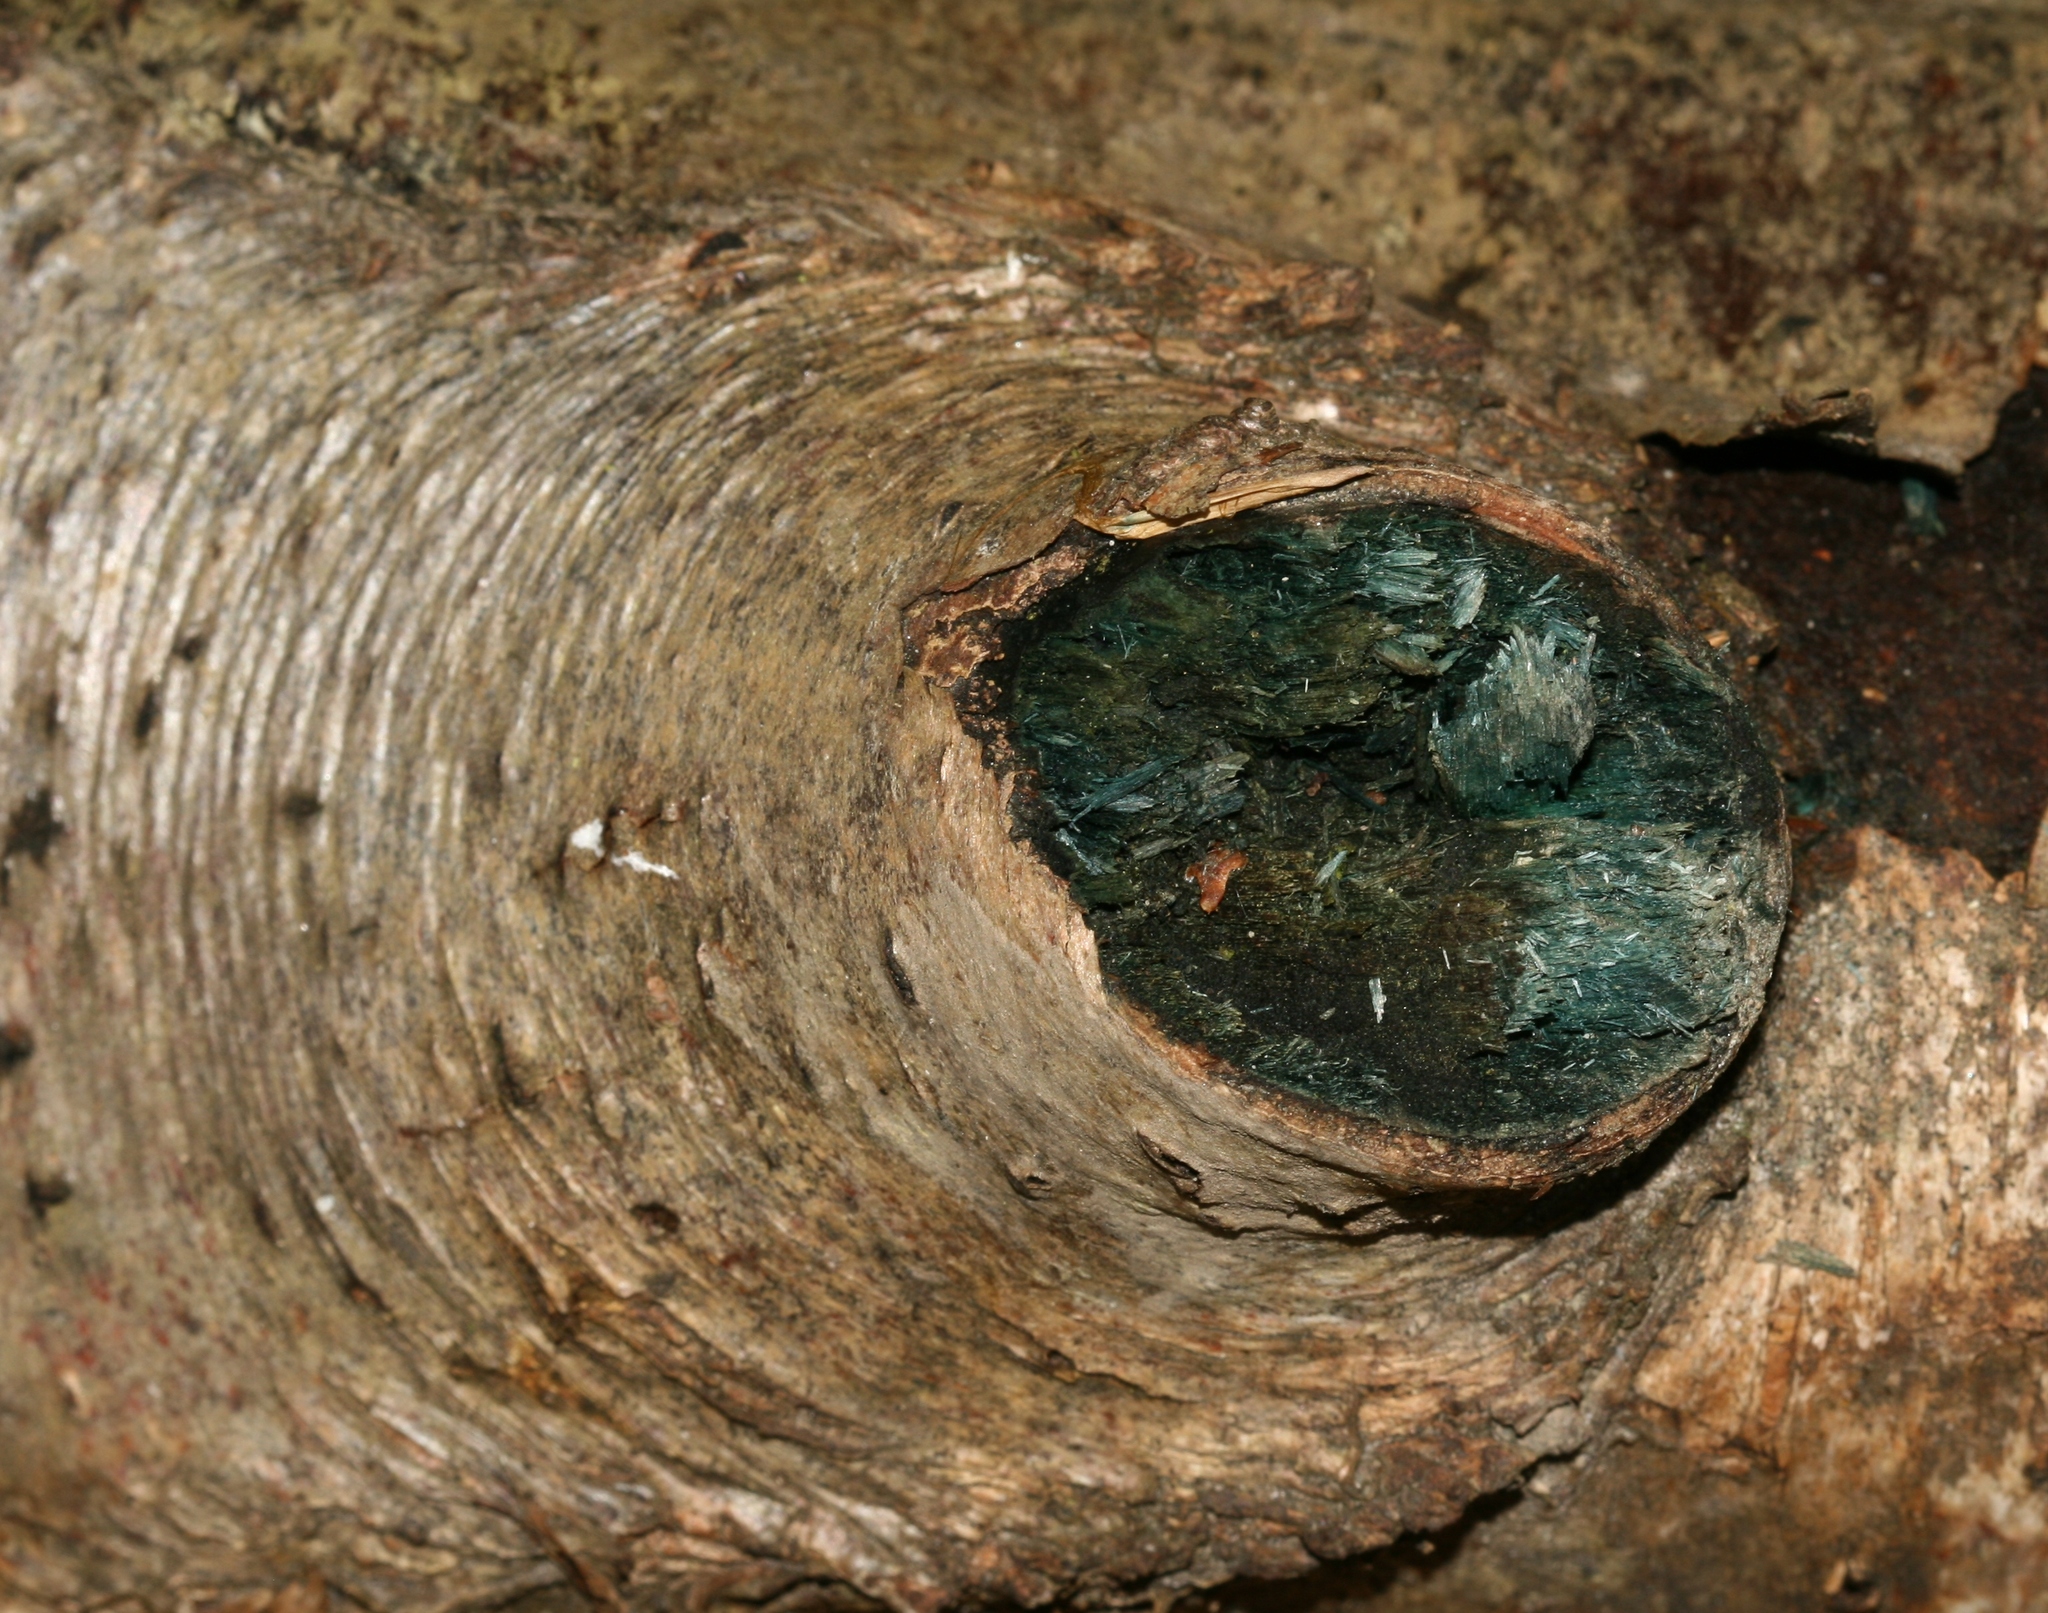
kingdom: Fungi
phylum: Ascomycota
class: Leotiomycetes
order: Helotiales
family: Chlorociboriaceae
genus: Chlorociboria
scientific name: Chlorociboria
